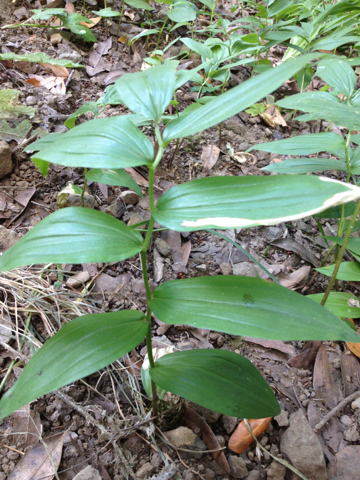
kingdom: Plantae
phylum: Tracheophyta
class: Liliopsida
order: Asparagales
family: Asparagaceae
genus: Maianthemum
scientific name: Maianthemum stellatum
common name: Little false solomon's seal
